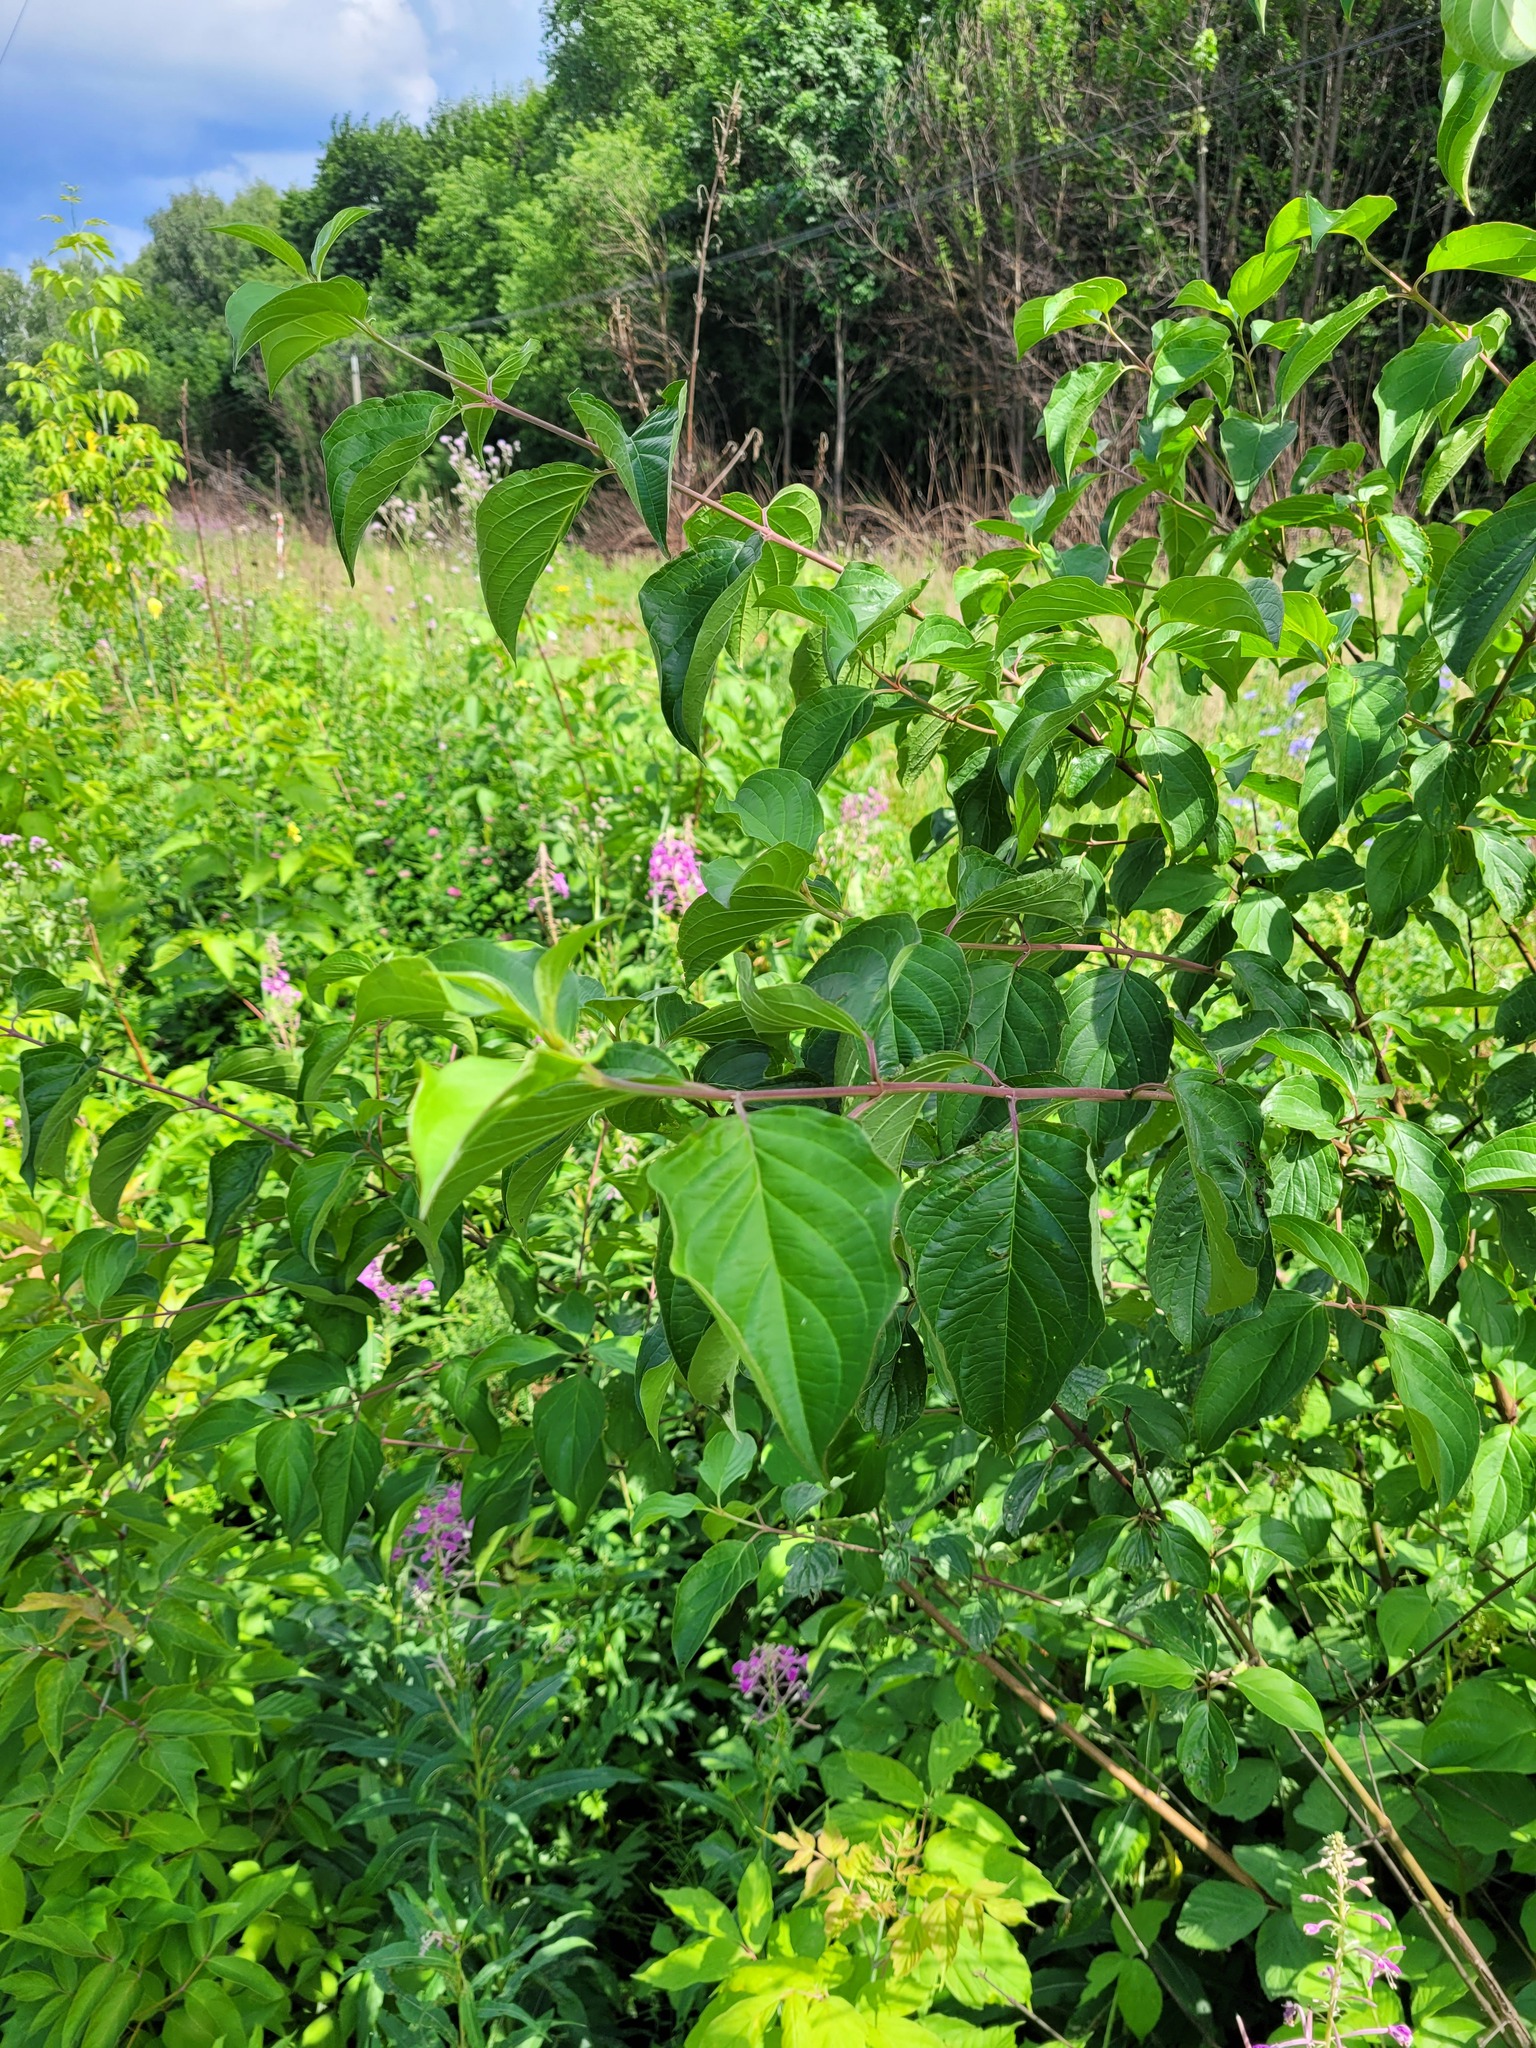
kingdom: Plantae
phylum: Tracheophyta
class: Magnoliopsida
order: Cornales
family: Cornaceae
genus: Cornus
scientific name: Cornus sanguinea
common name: Dogwood
